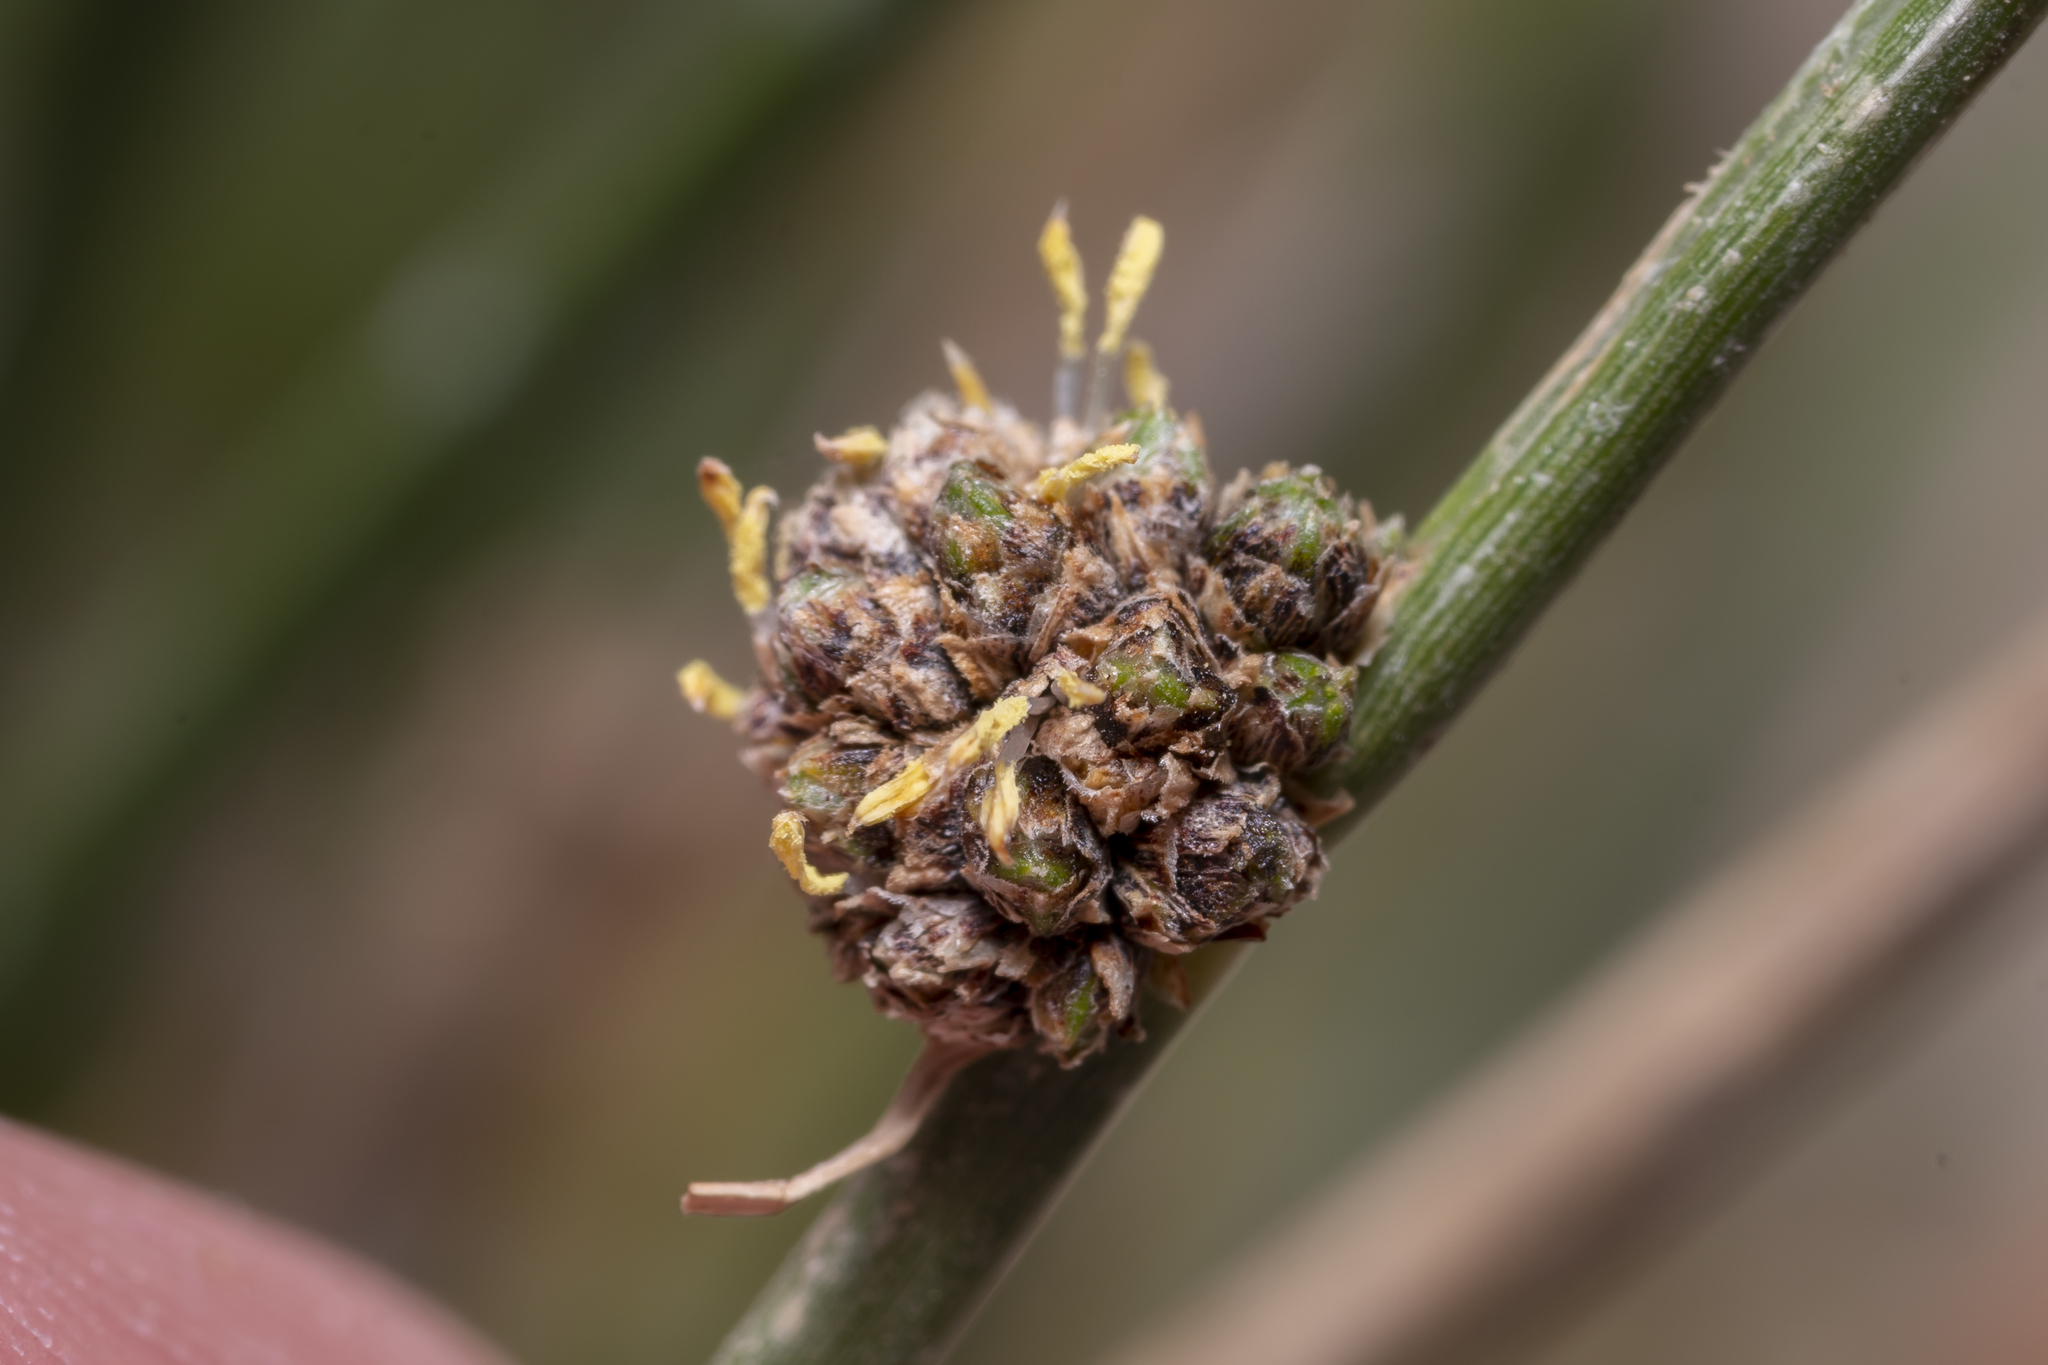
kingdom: Plantae
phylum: Tracheophyta
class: Liliopsida
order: Poales
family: Cyperaceae
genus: Scirpoides
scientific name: Scirpoides holoschoenus
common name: Round-headed club-rush
